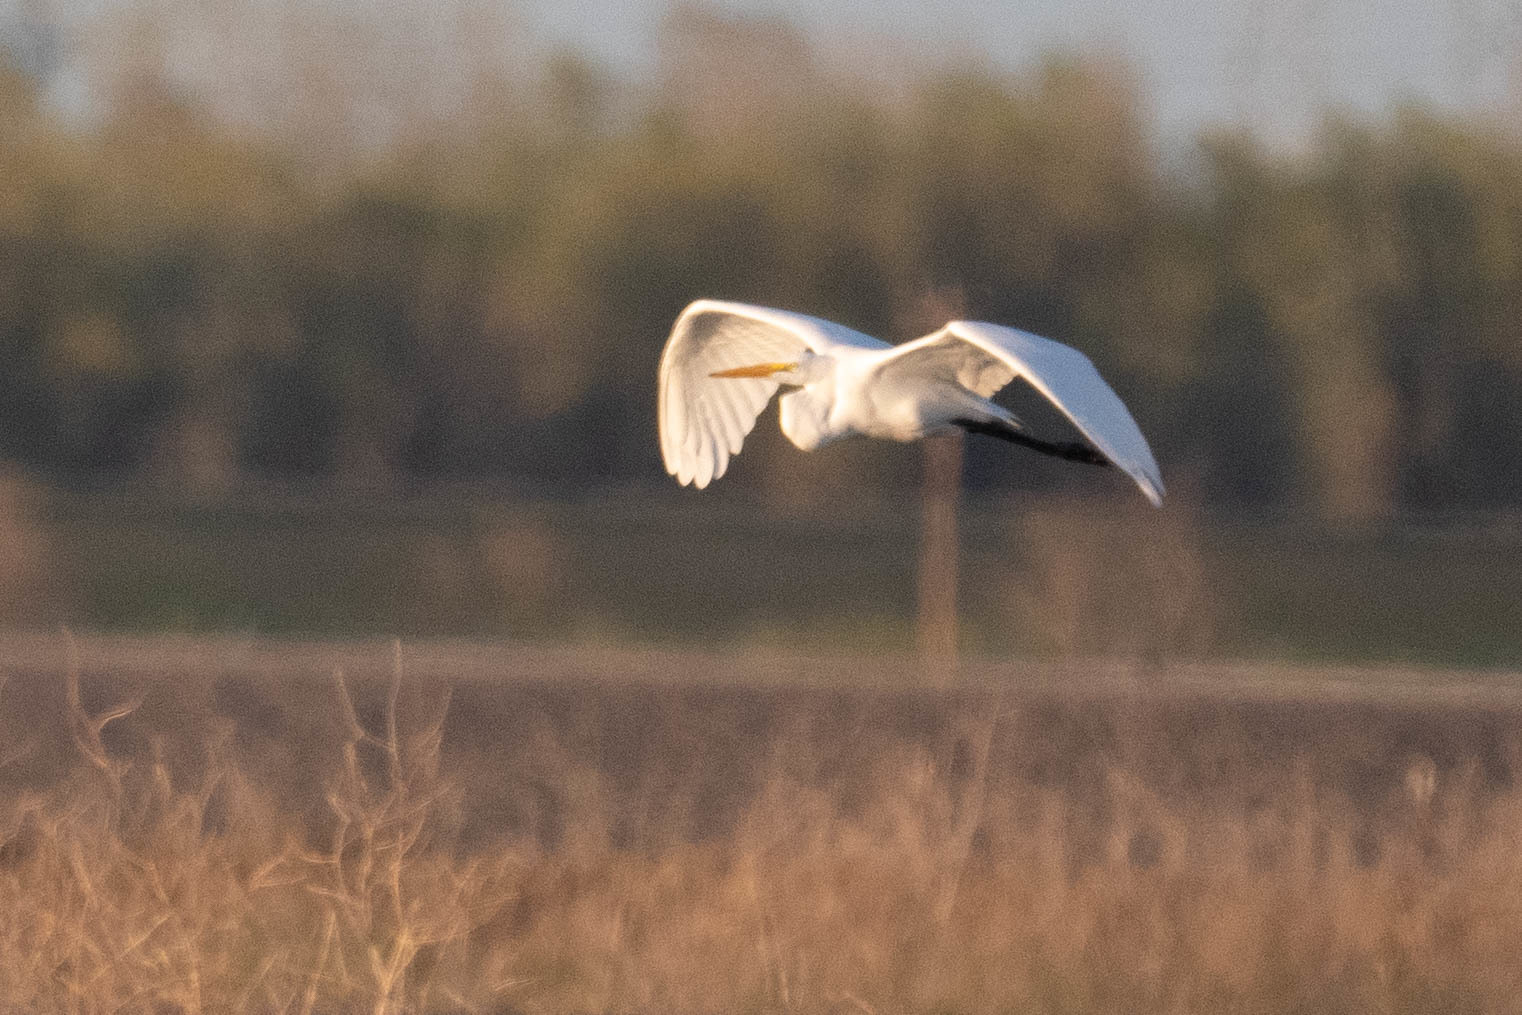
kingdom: Animalia
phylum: Chordata
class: Aves
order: Pelecaniformes
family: Ardeidae
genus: Ardea
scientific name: Ardea alba
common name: Great egret
